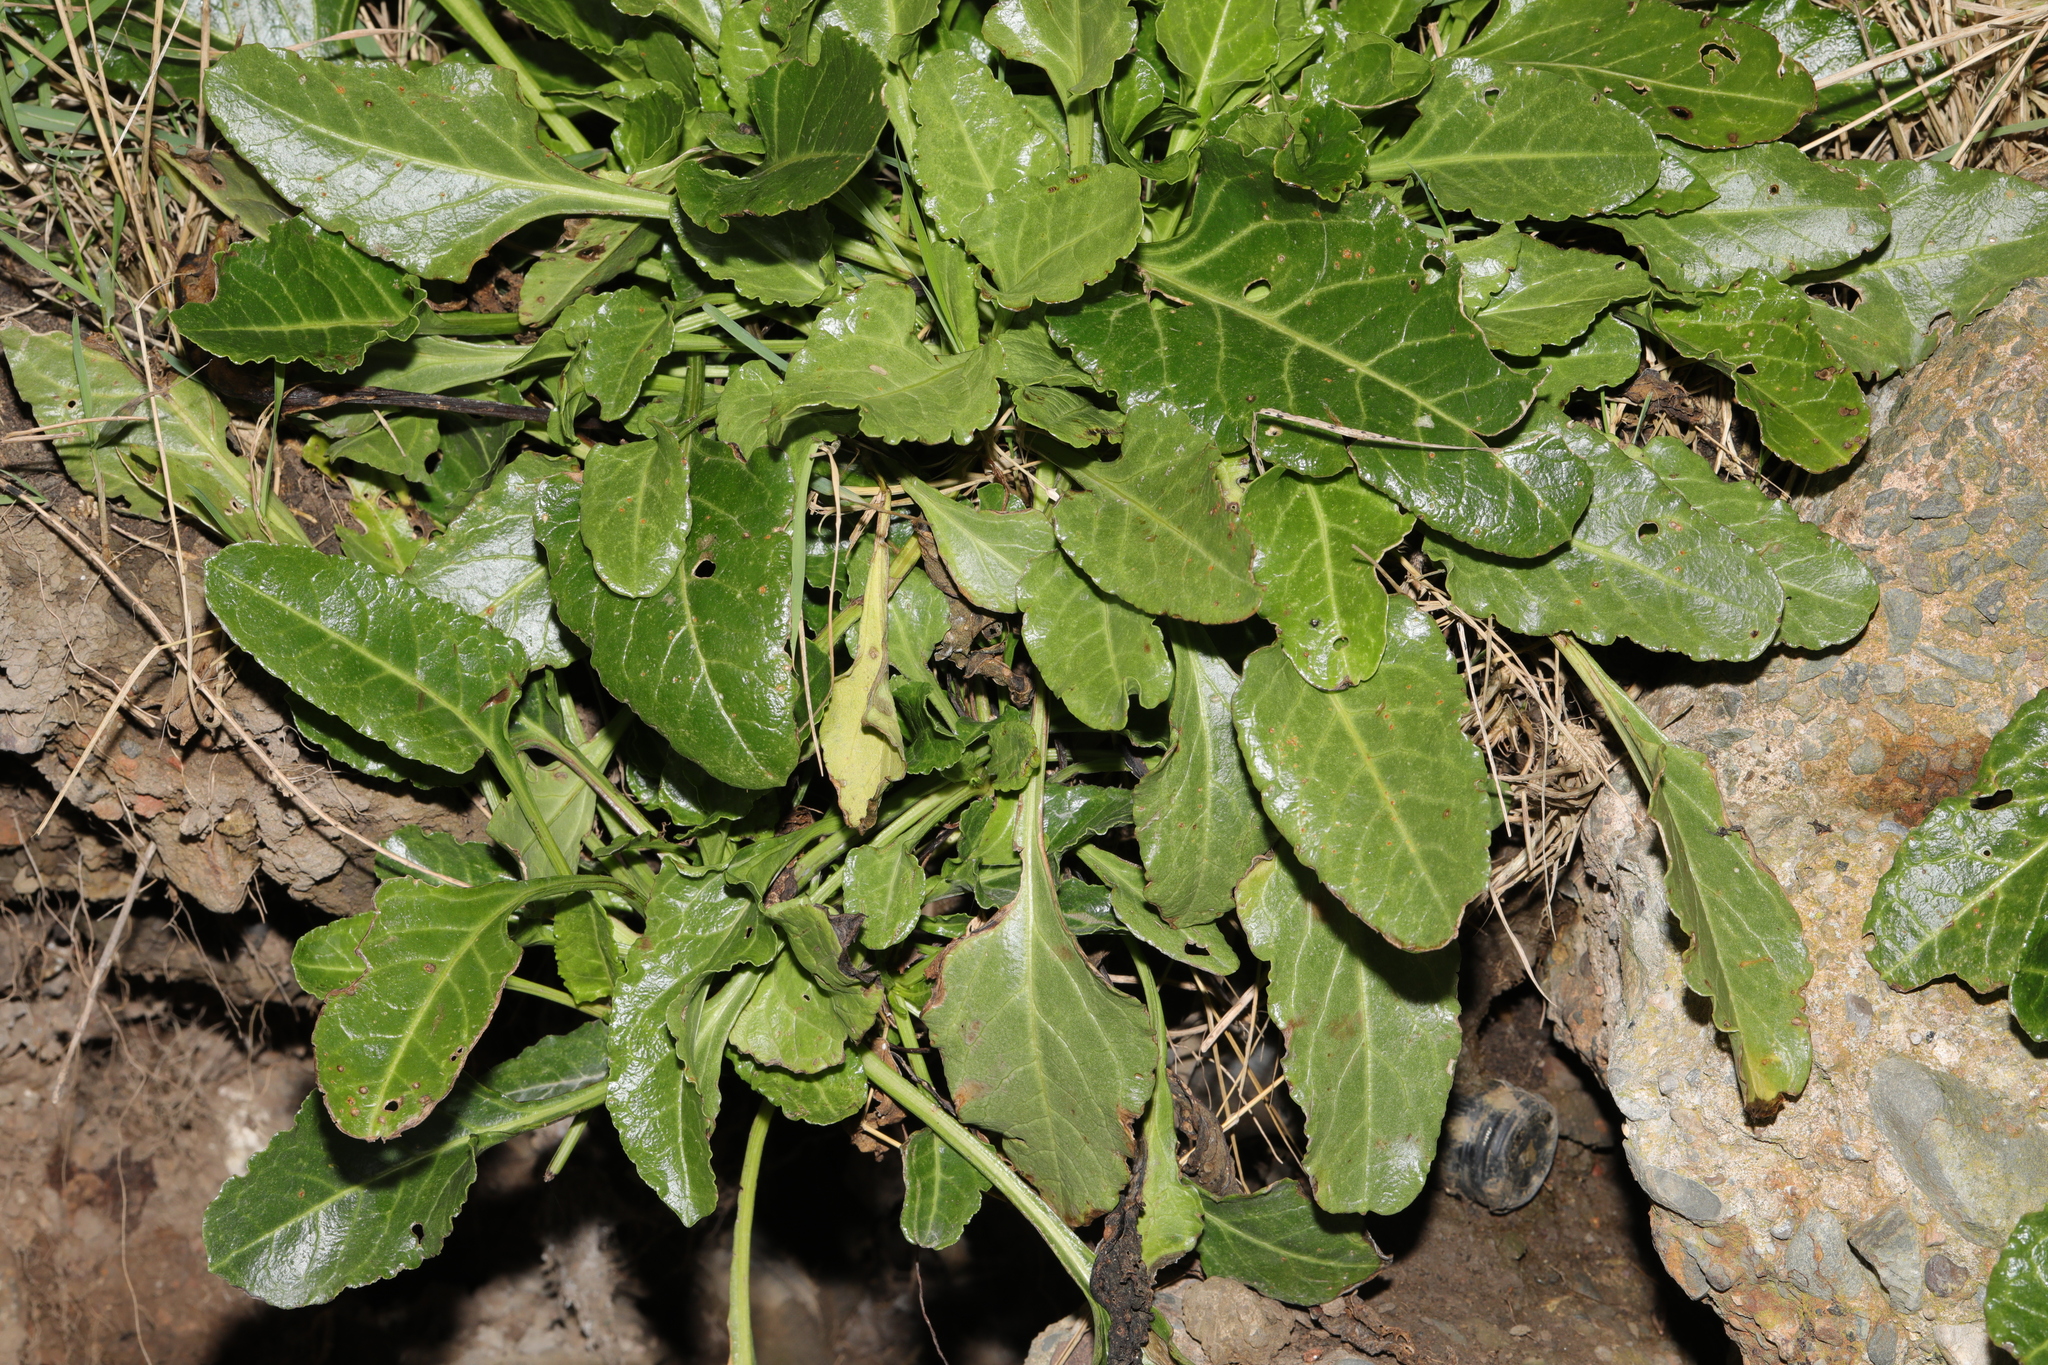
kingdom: Plantae
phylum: Tracheophyta
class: Magnoliopsida
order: Caryophyllales
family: Amaranthaceae
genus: Beta
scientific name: Beta vulgaris
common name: Beet
